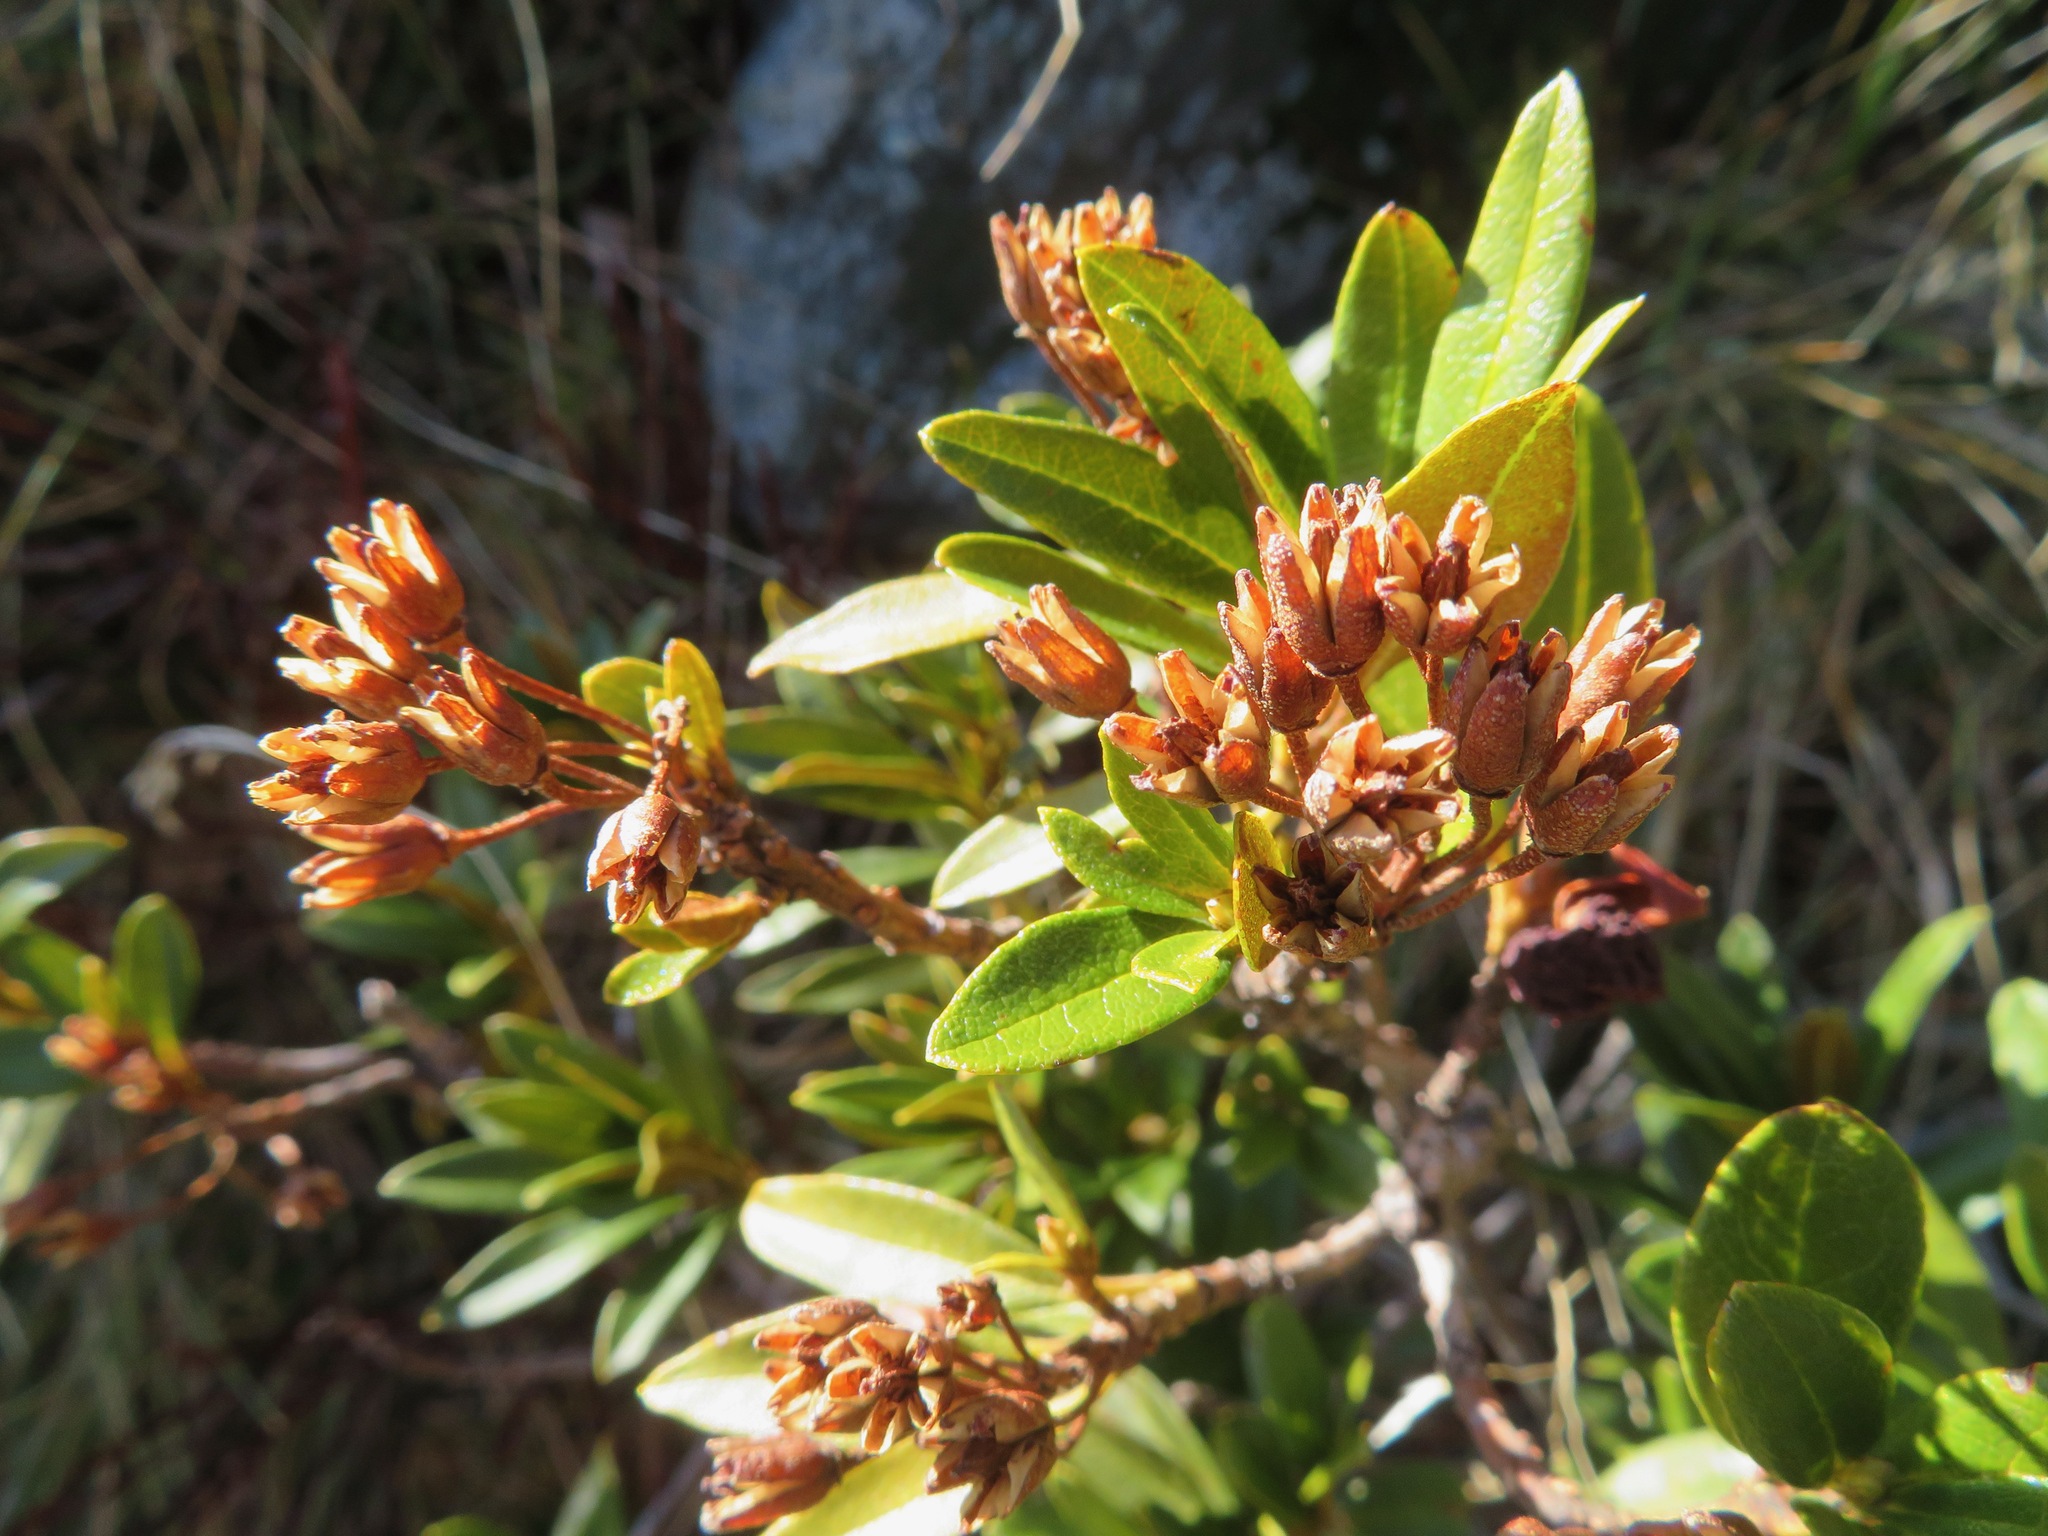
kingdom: Plantae
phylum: Tracheophyta
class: Magnoliopsida
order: Ericales
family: Ericaceae
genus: Rhododendron
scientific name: Rhododendron ferrugineum
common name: Alpenrose
